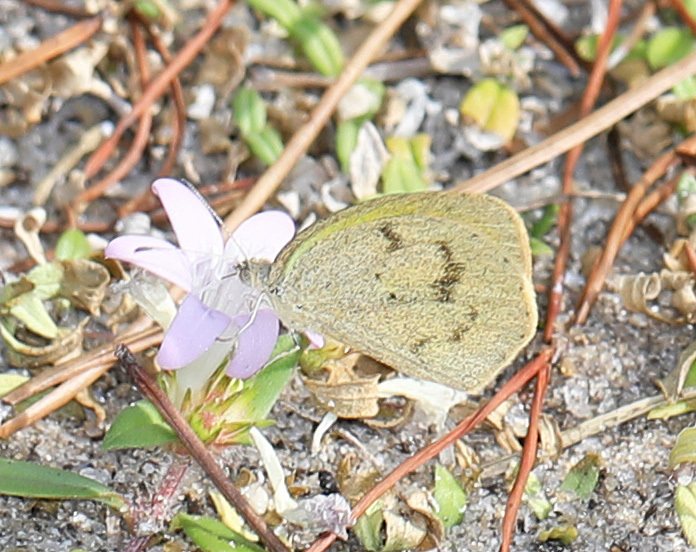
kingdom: Animalia
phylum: Arthropoda
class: Insecta
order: Lepidoptera
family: Pieridae
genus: Eurema
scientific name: Eurema daira
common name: Barred sulphur
